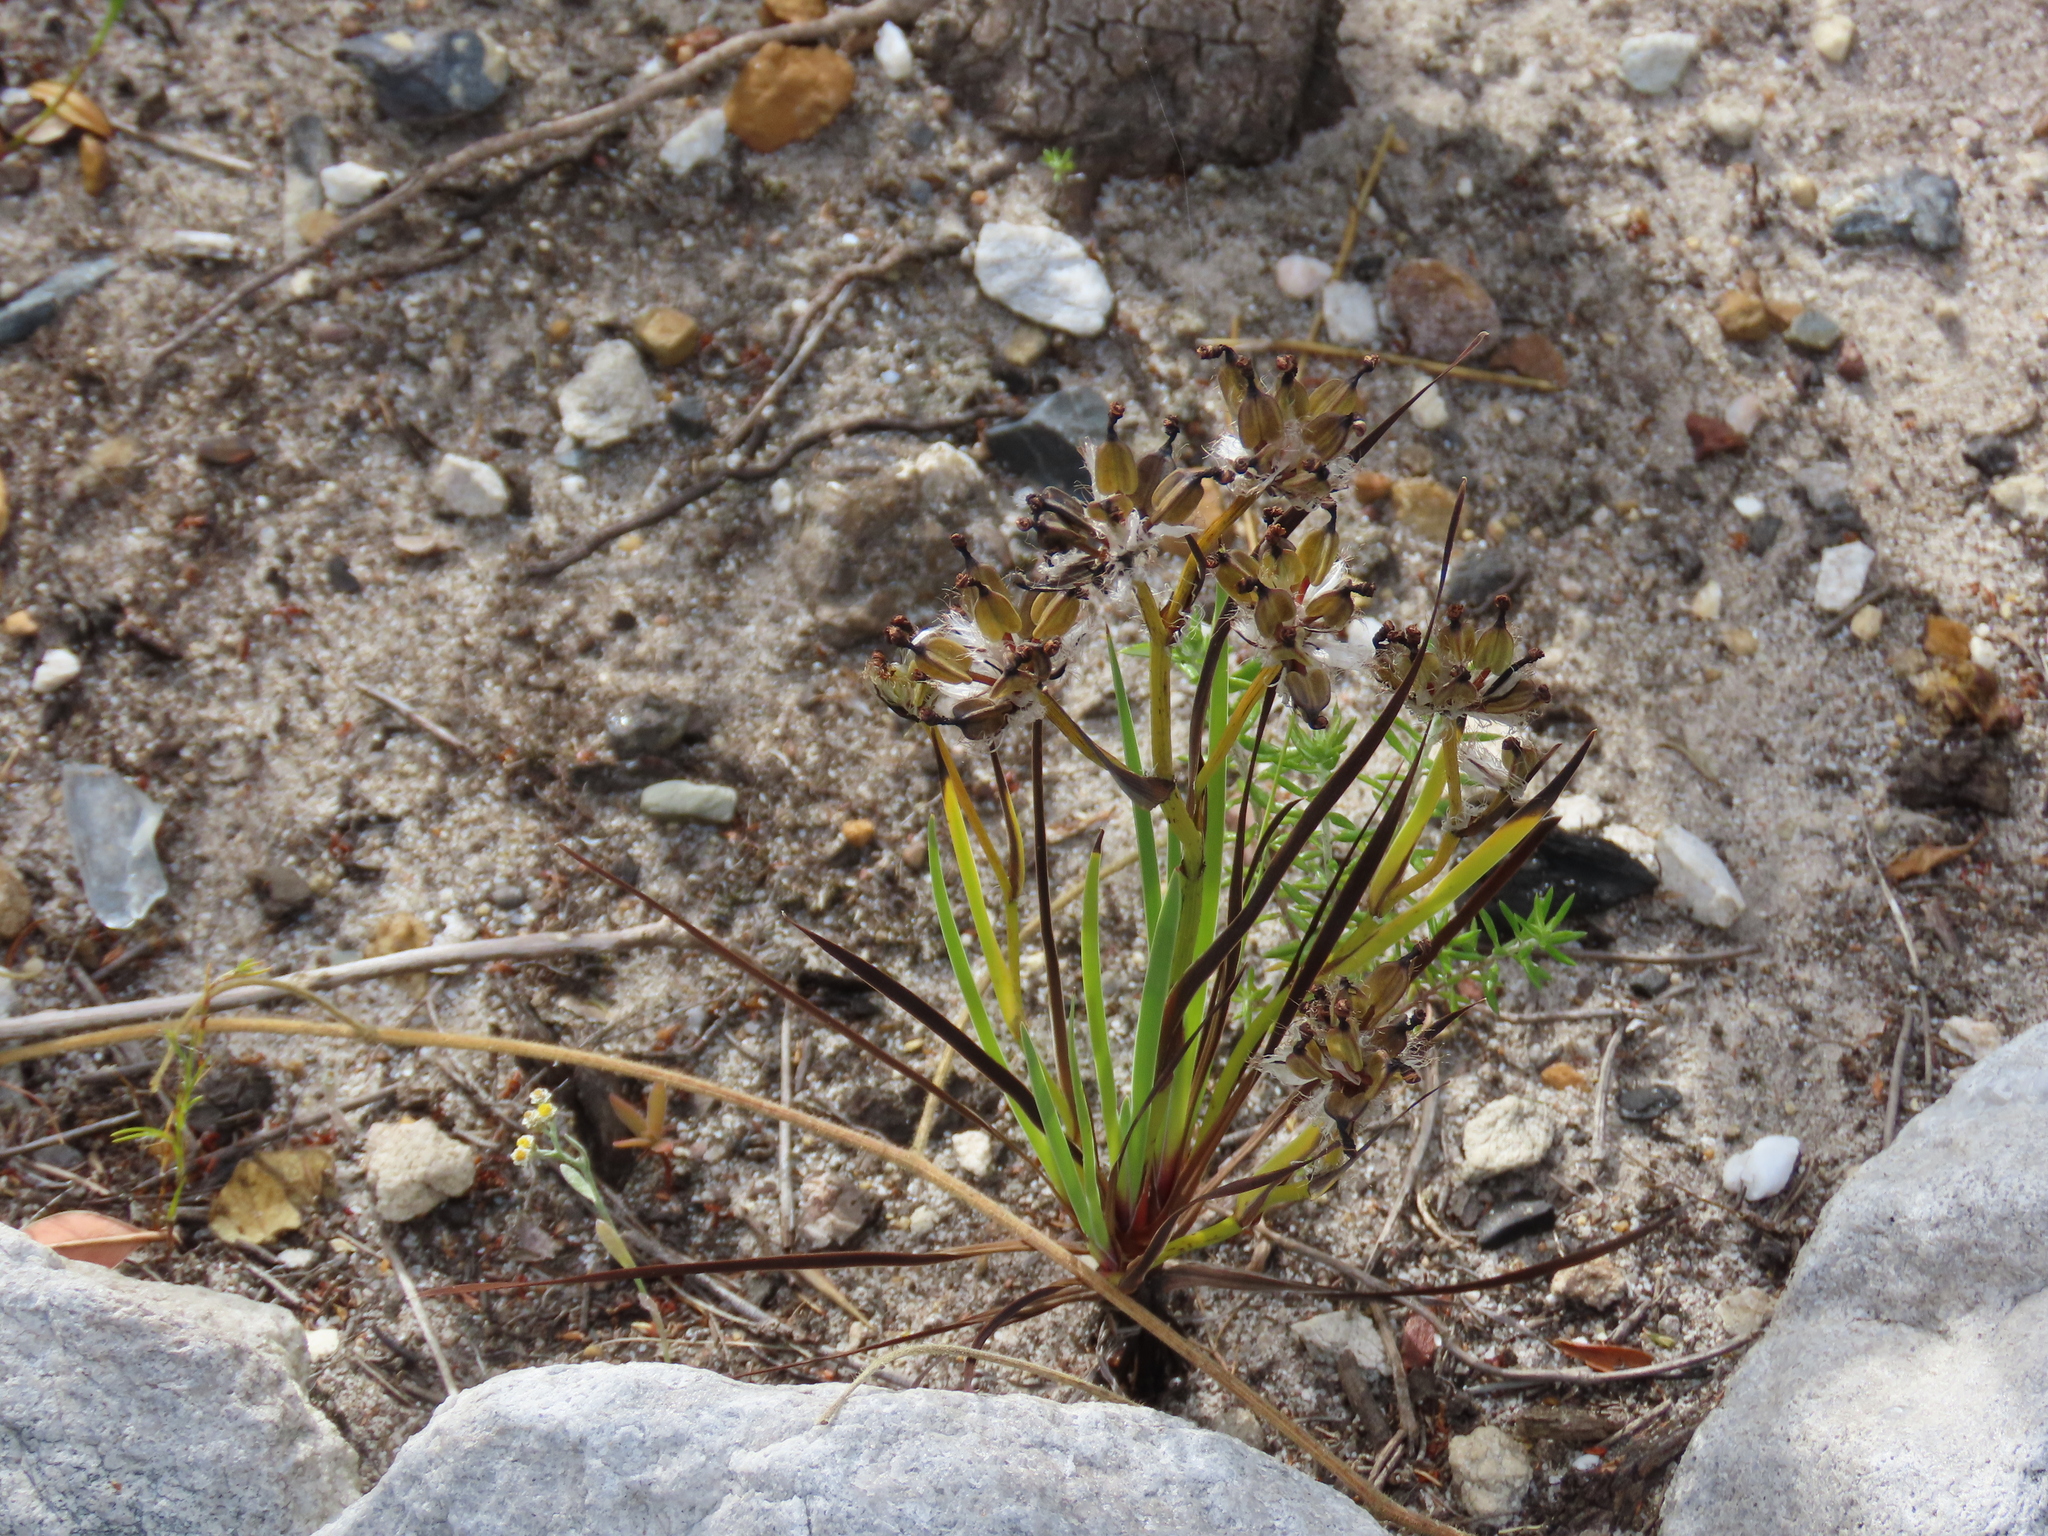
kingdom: Plantae
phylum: Tracheophyta
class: Liliopsida
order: Asparagales
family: Iridaceae
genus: Aristea
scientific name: Aristea africana
